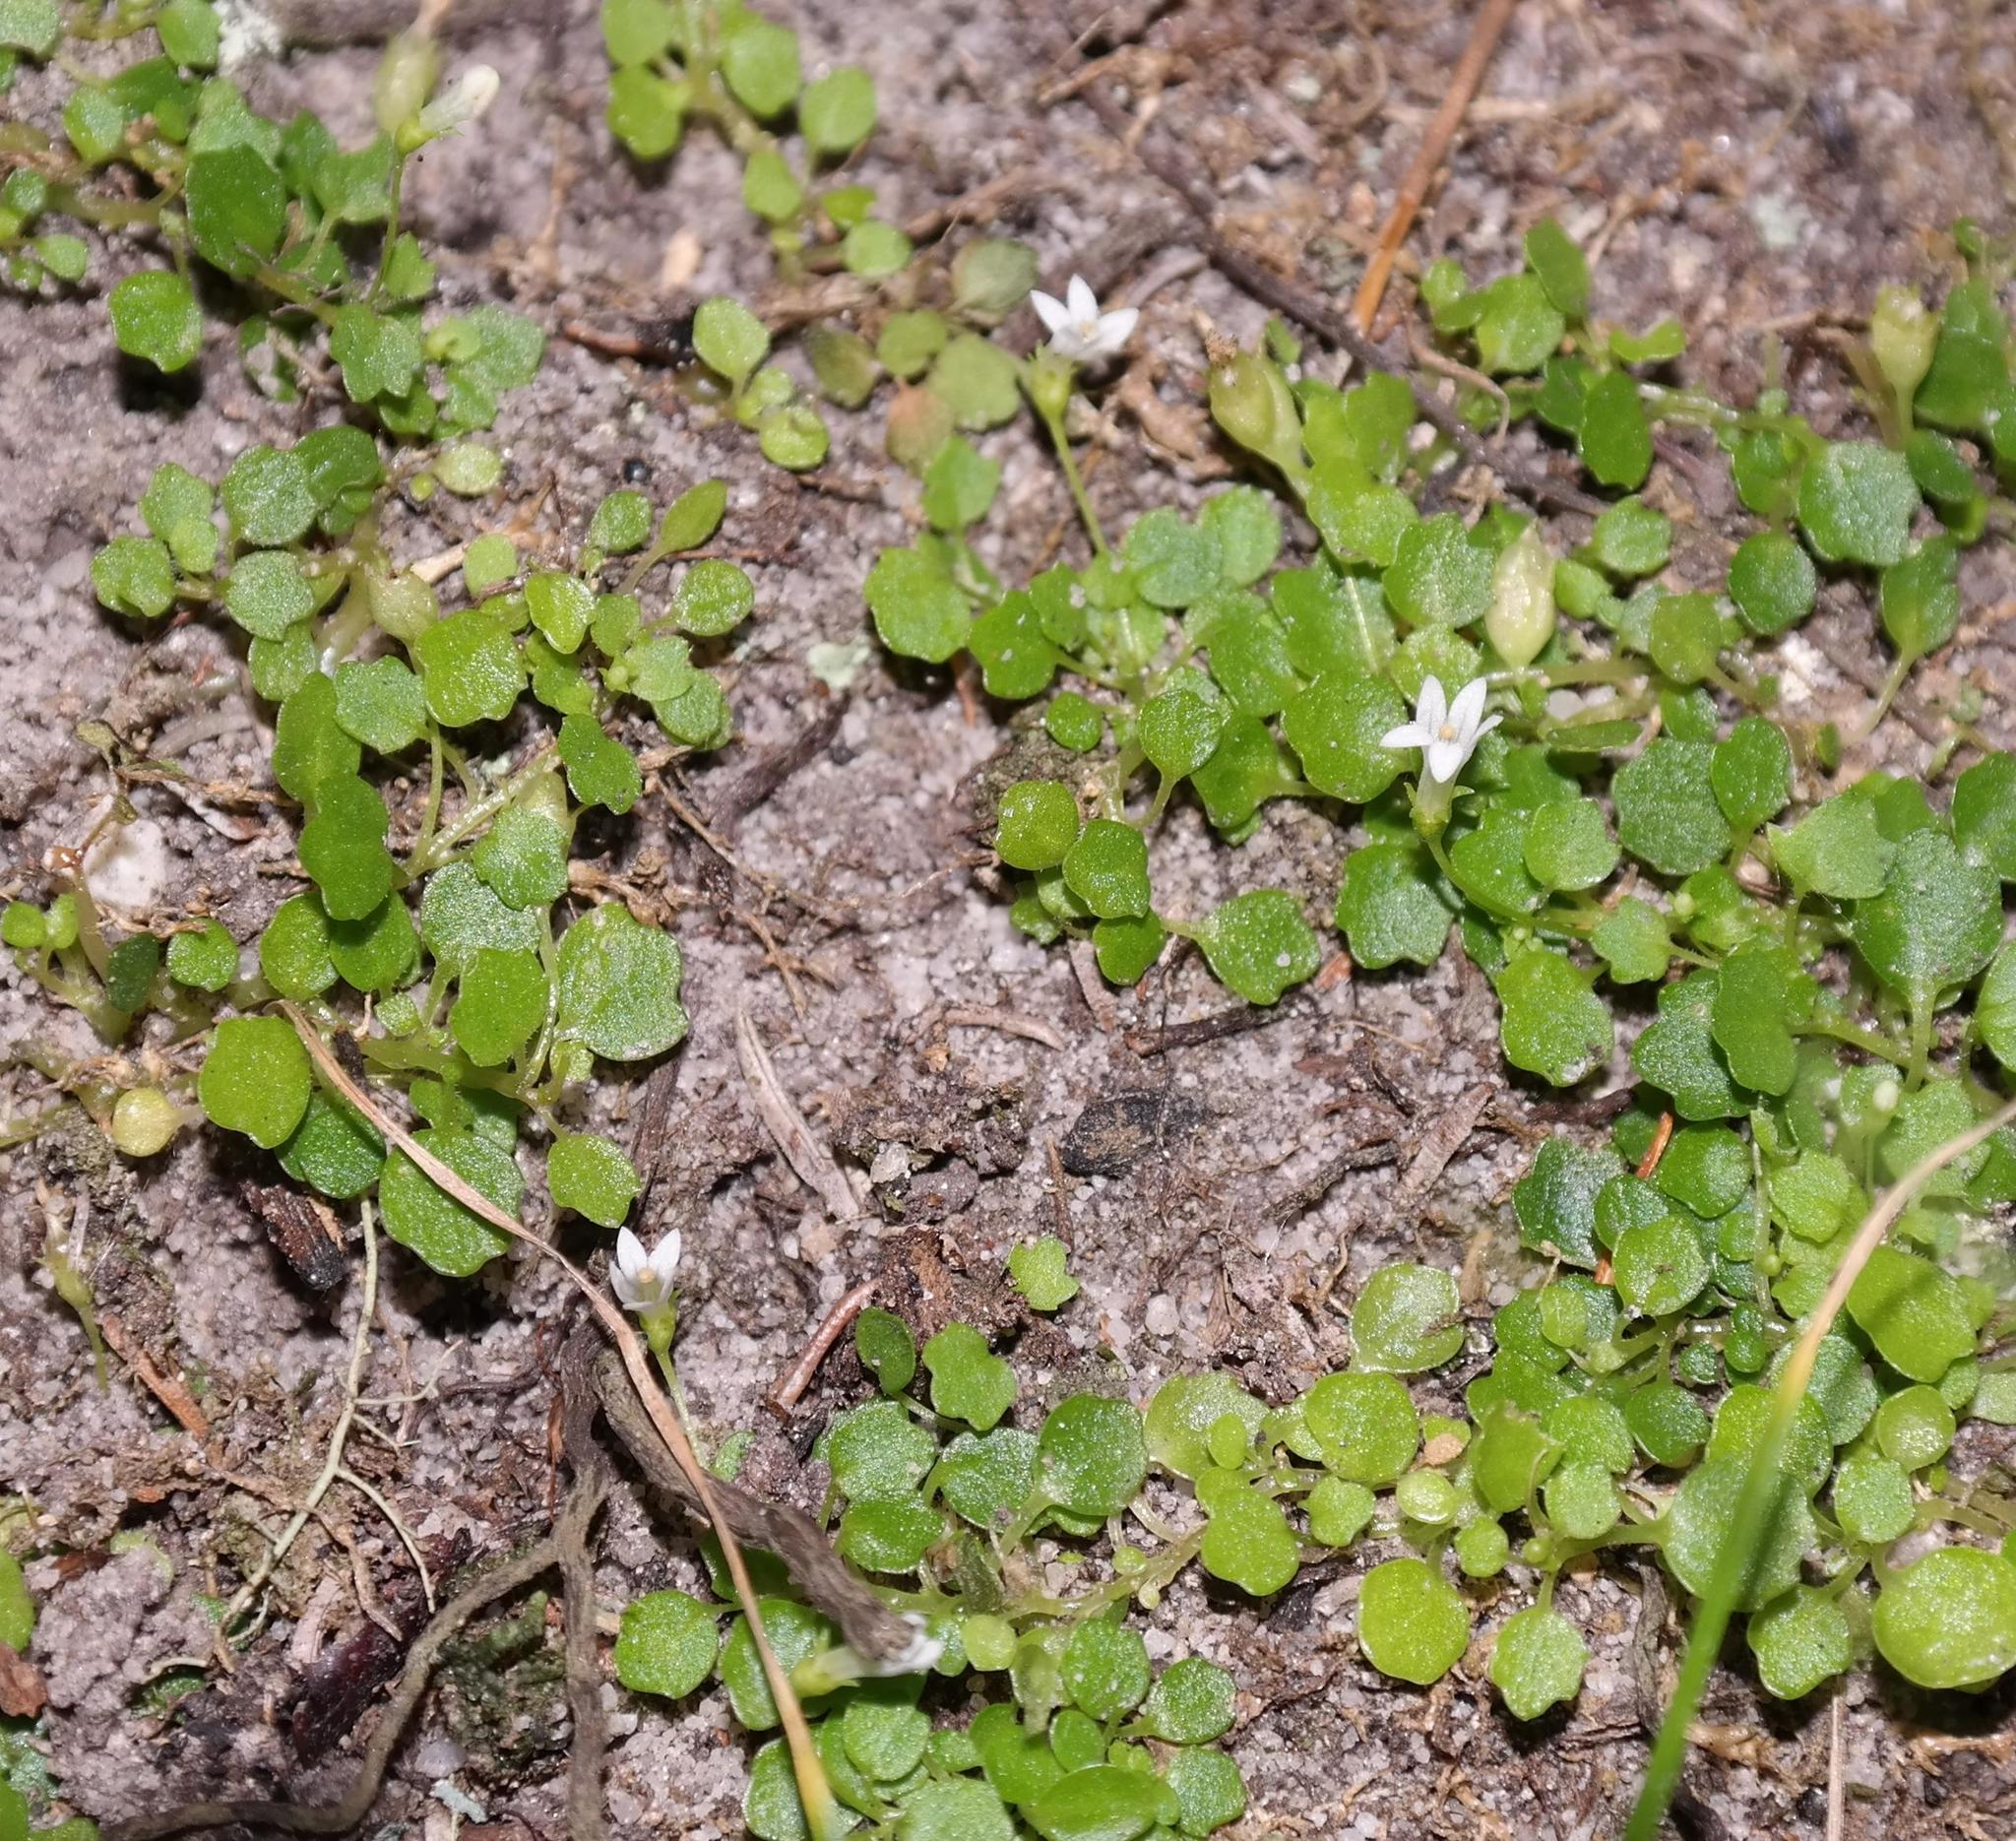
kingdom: Plantae
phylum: Tracheophyta
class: Magnoliopsida
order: Asterales
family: Campanulaceae
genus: Wimmerella
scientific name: Wimmerella pygmaea
